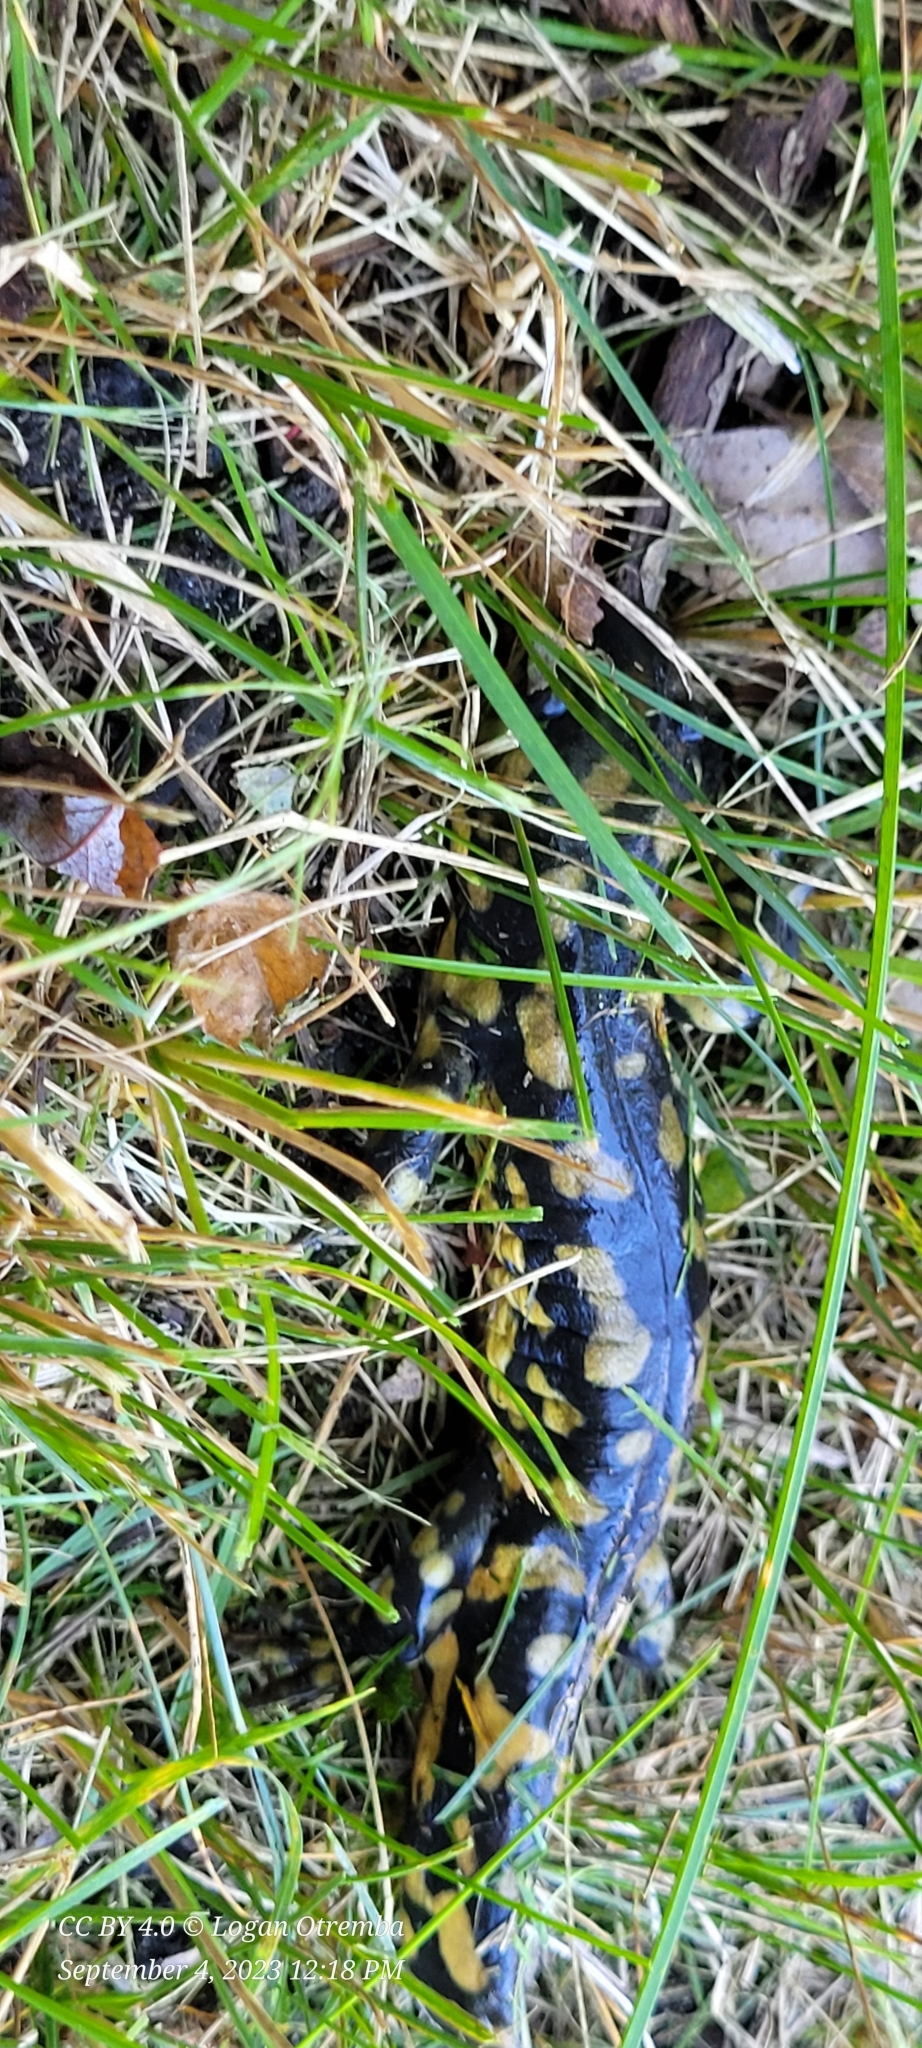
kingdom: Animalia
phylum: Chordata
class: Amphibia
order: Caudata
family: Ambystomatidae
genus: Ambystoma
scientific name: Ambystoma tigrinum
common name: Tiger salamander
